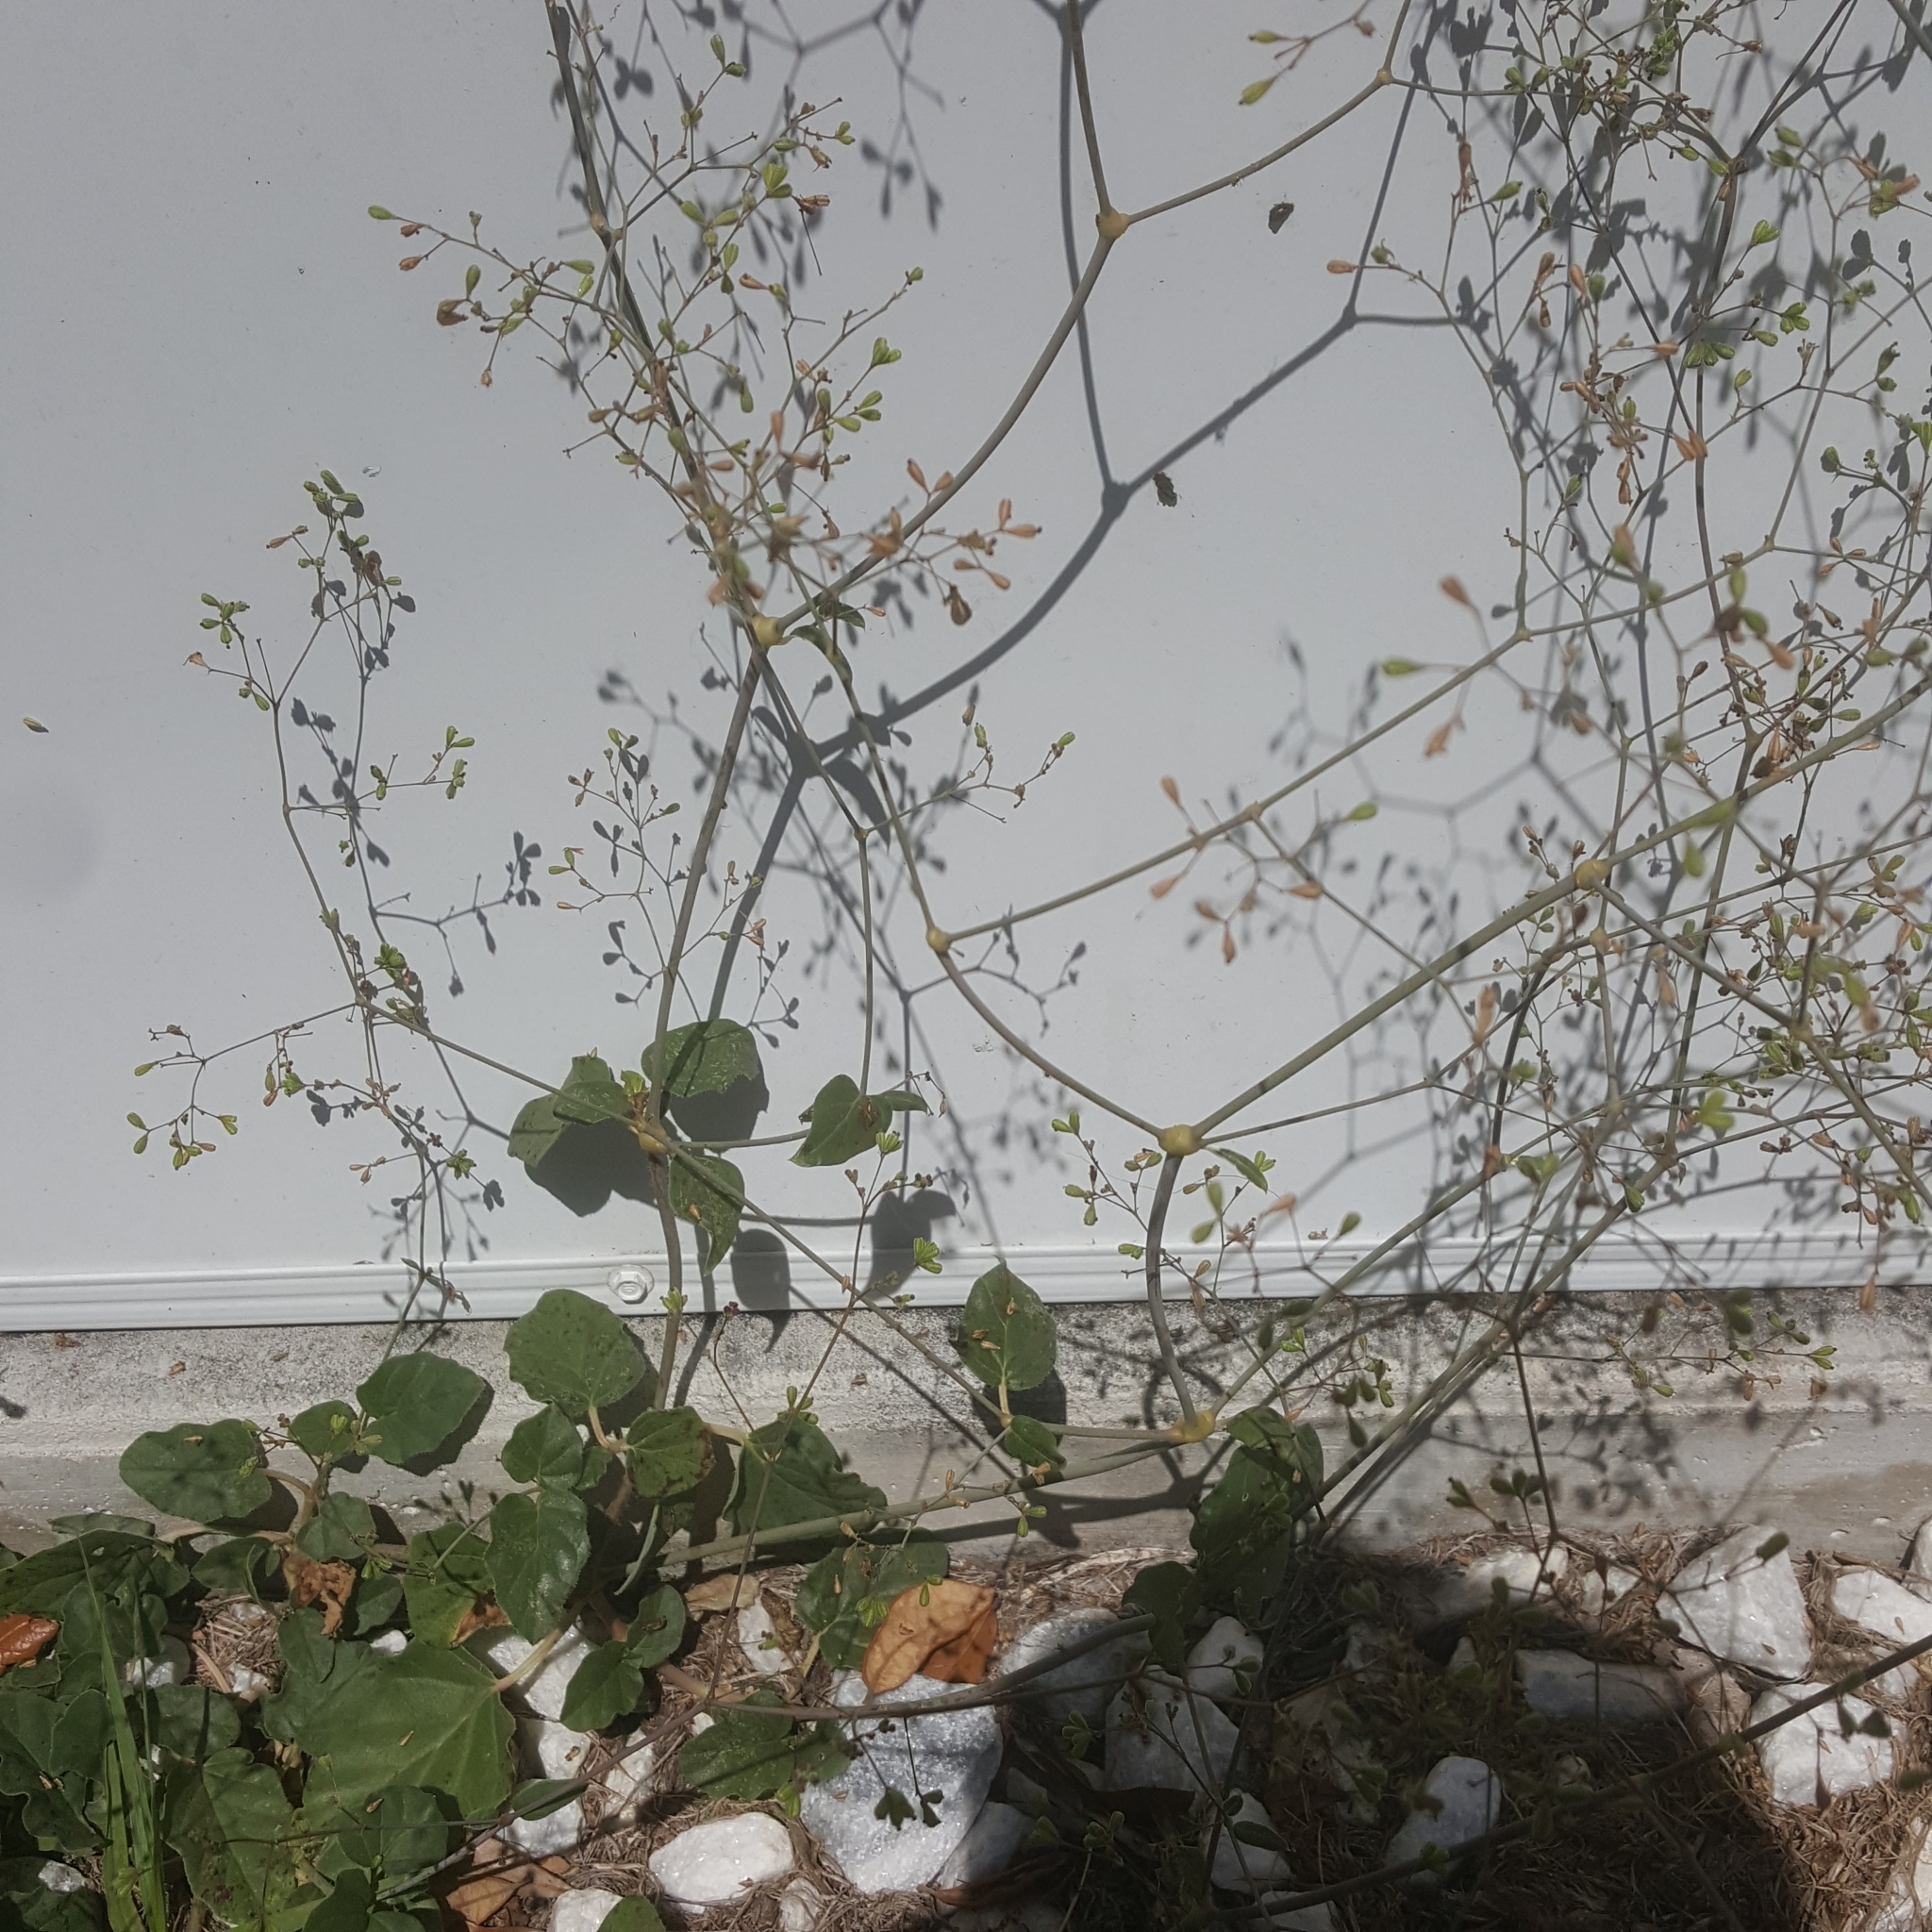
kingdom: Plantae
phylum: Tracheophyta
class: Magnoliopsida
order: Caryophyllales
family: Nyctaginaceae
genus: Boerhavia
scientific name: Boerhavia diffusa
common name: Red spiderling
